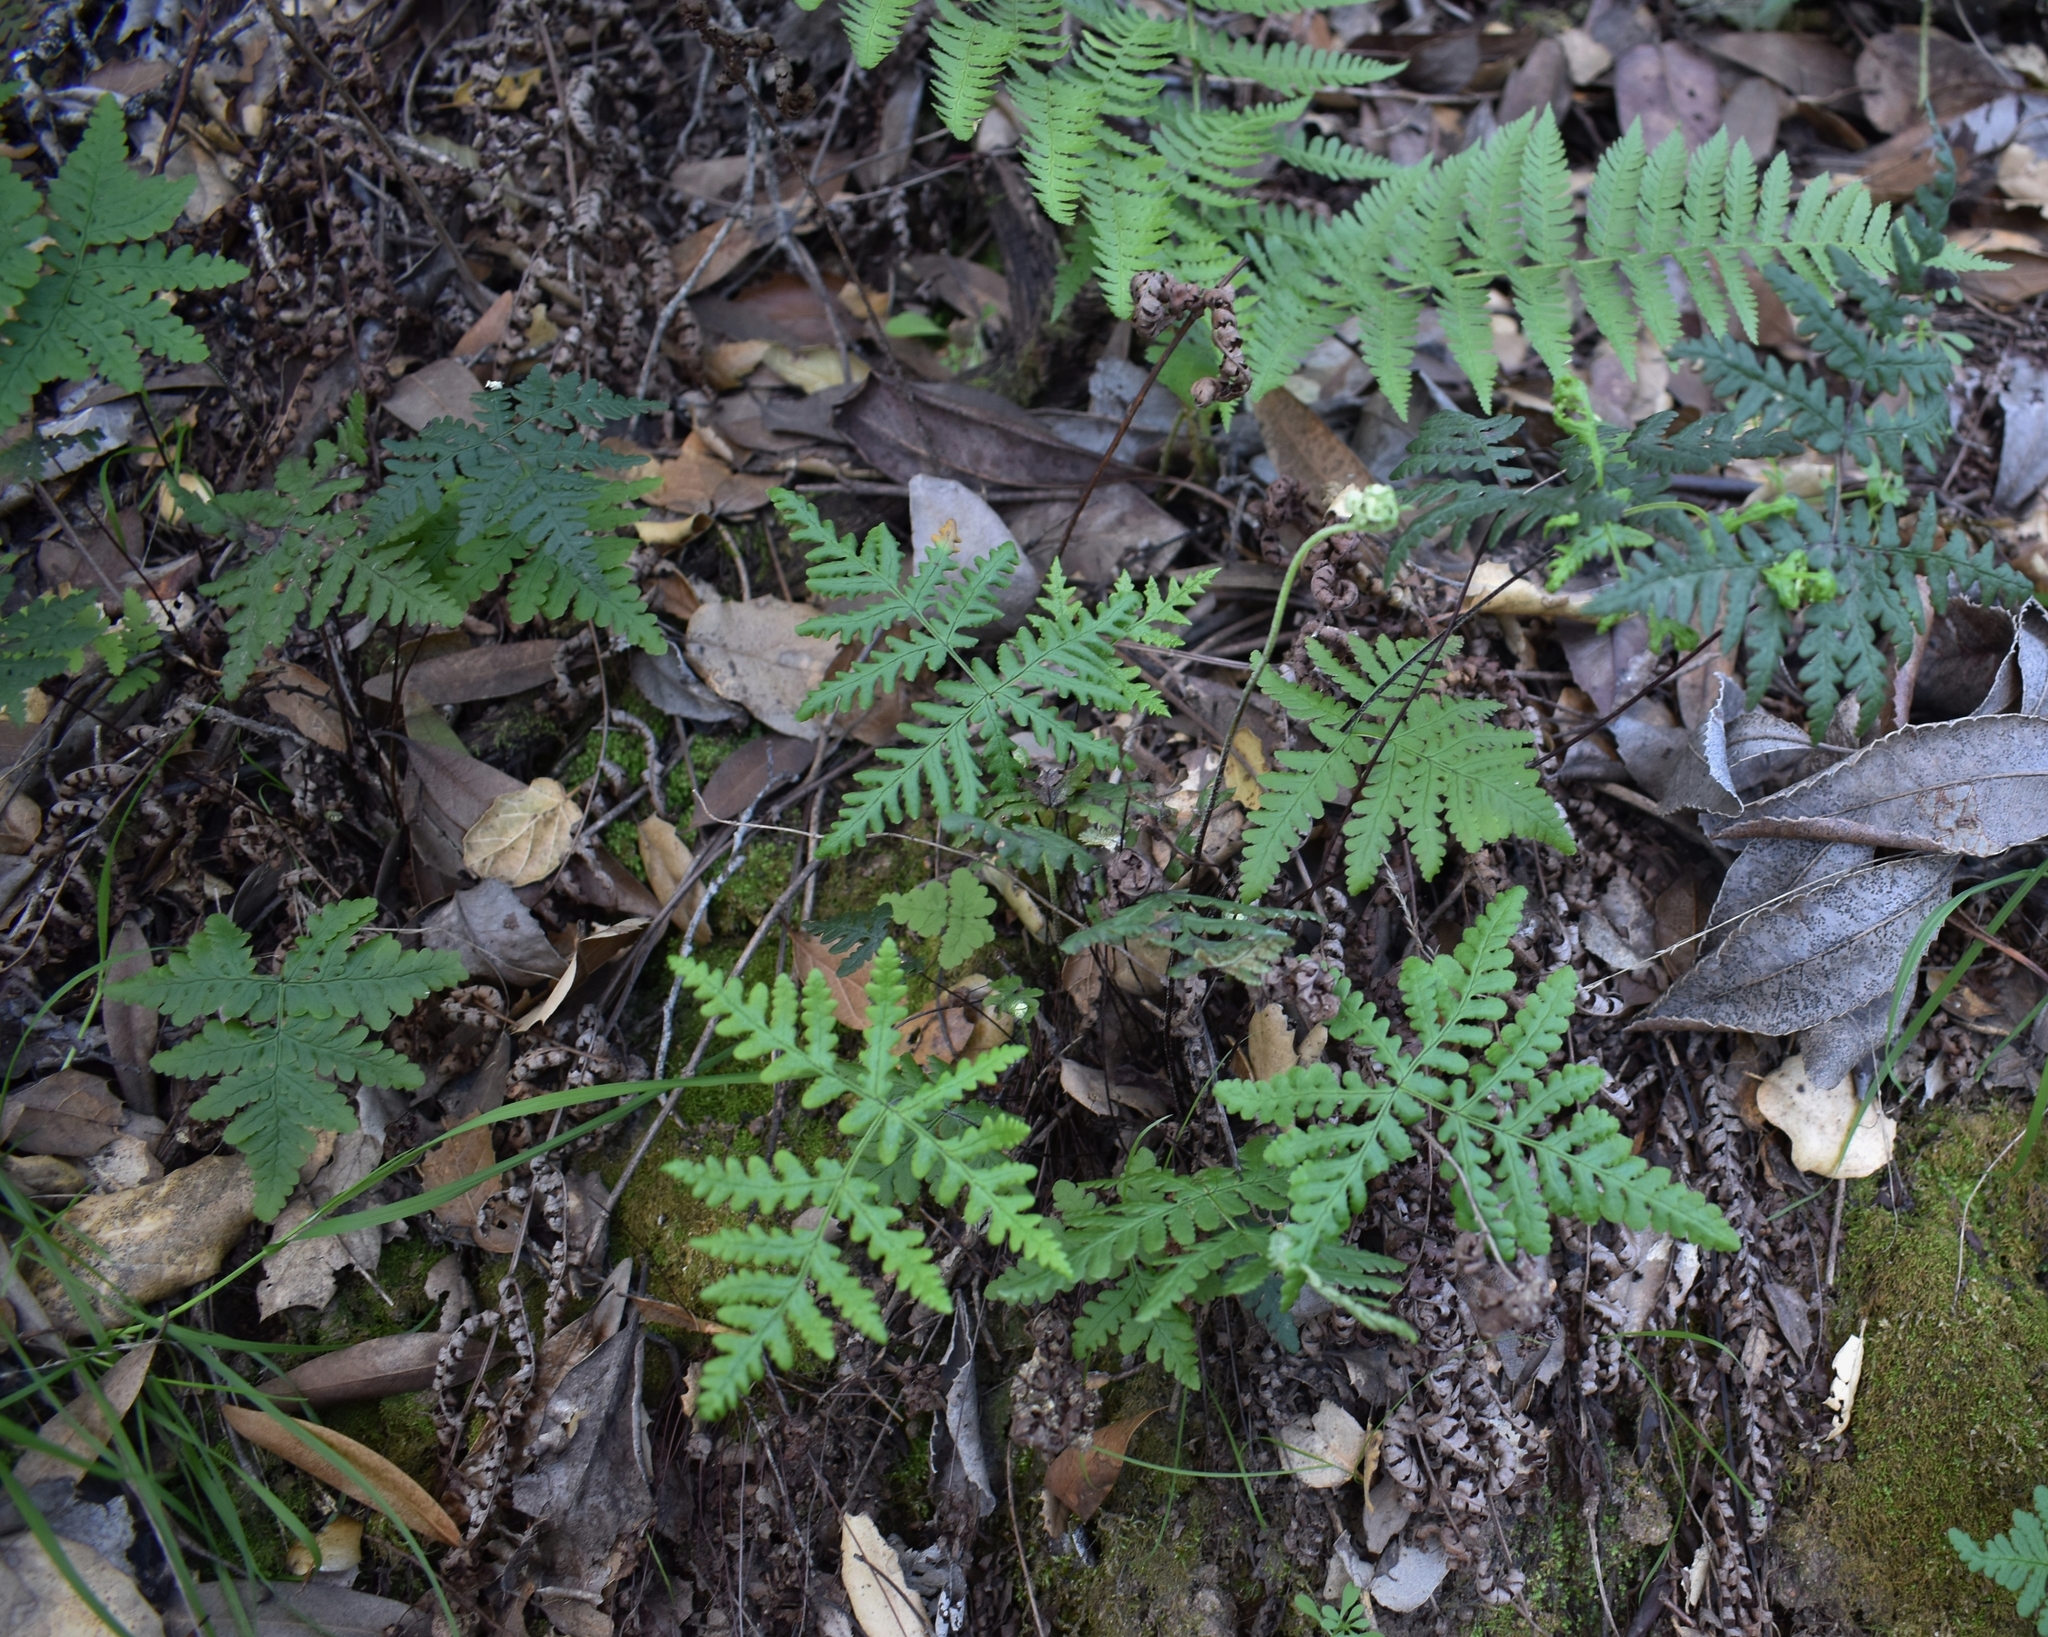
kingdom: Plantae
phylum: Tracheophyta
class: Polypodiopsida
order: Polypodiales
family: Pteridaceae
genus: Pentagramma
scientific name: Pentagramma triangularis
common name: Gold fern
